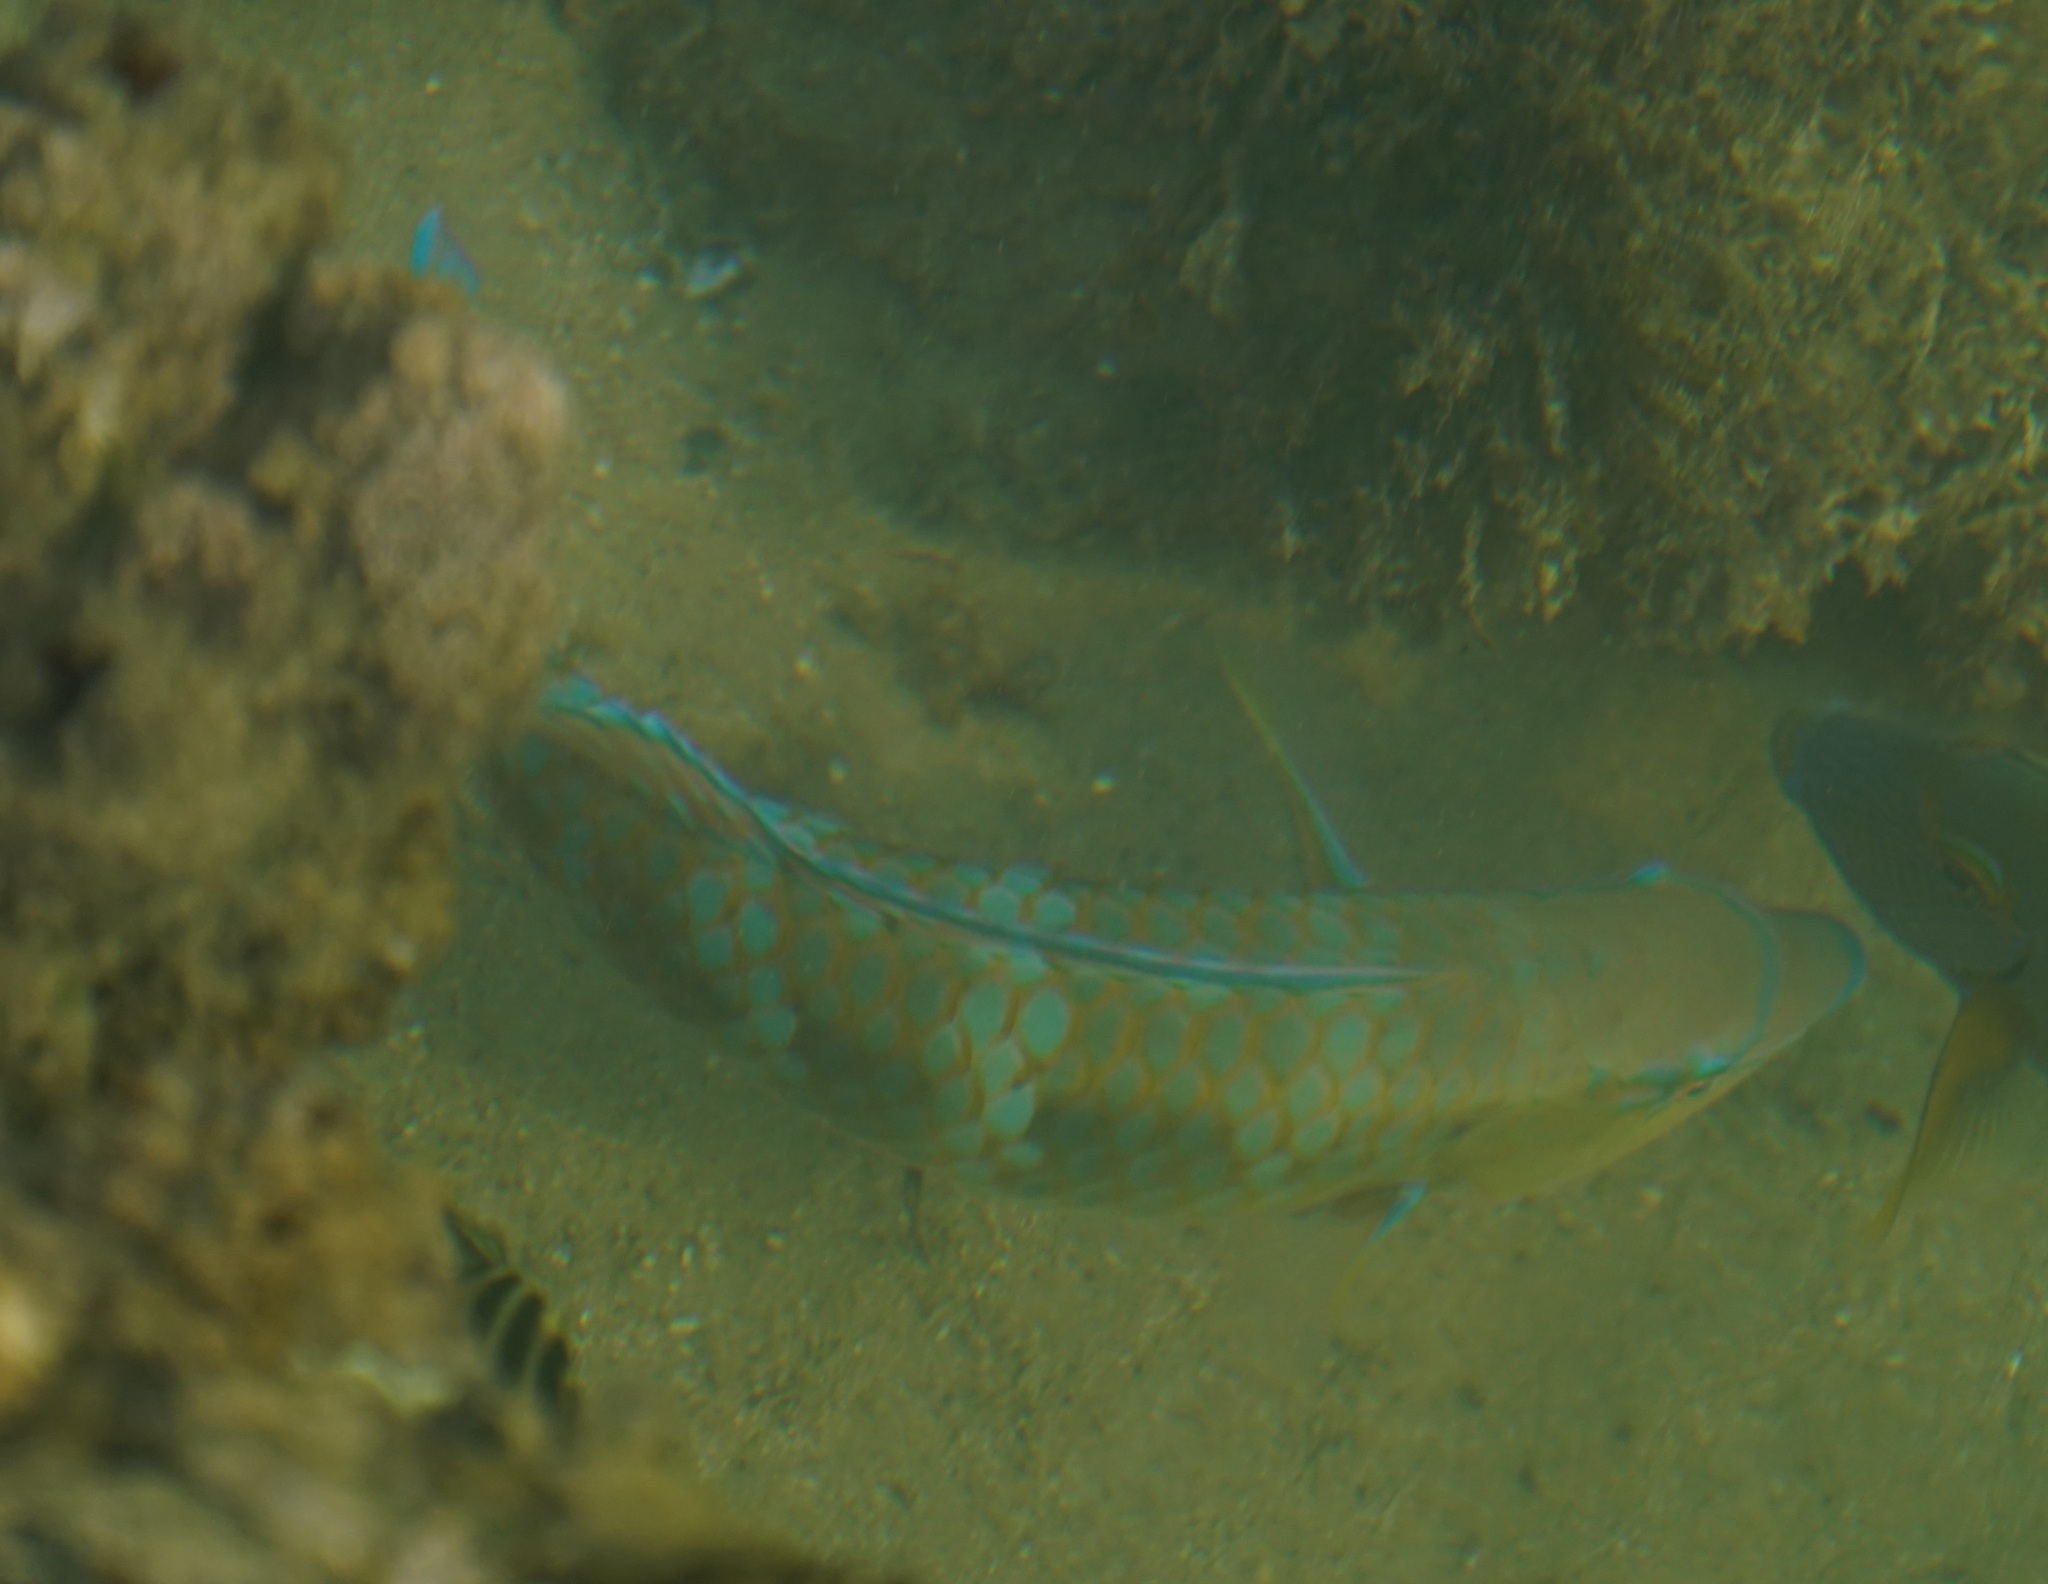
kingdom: Animalia
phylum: Chordata
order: Perciformes
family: Scaridae
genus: Scarus
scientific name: Scarus ghobban
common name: Blue-barred parrotfish
